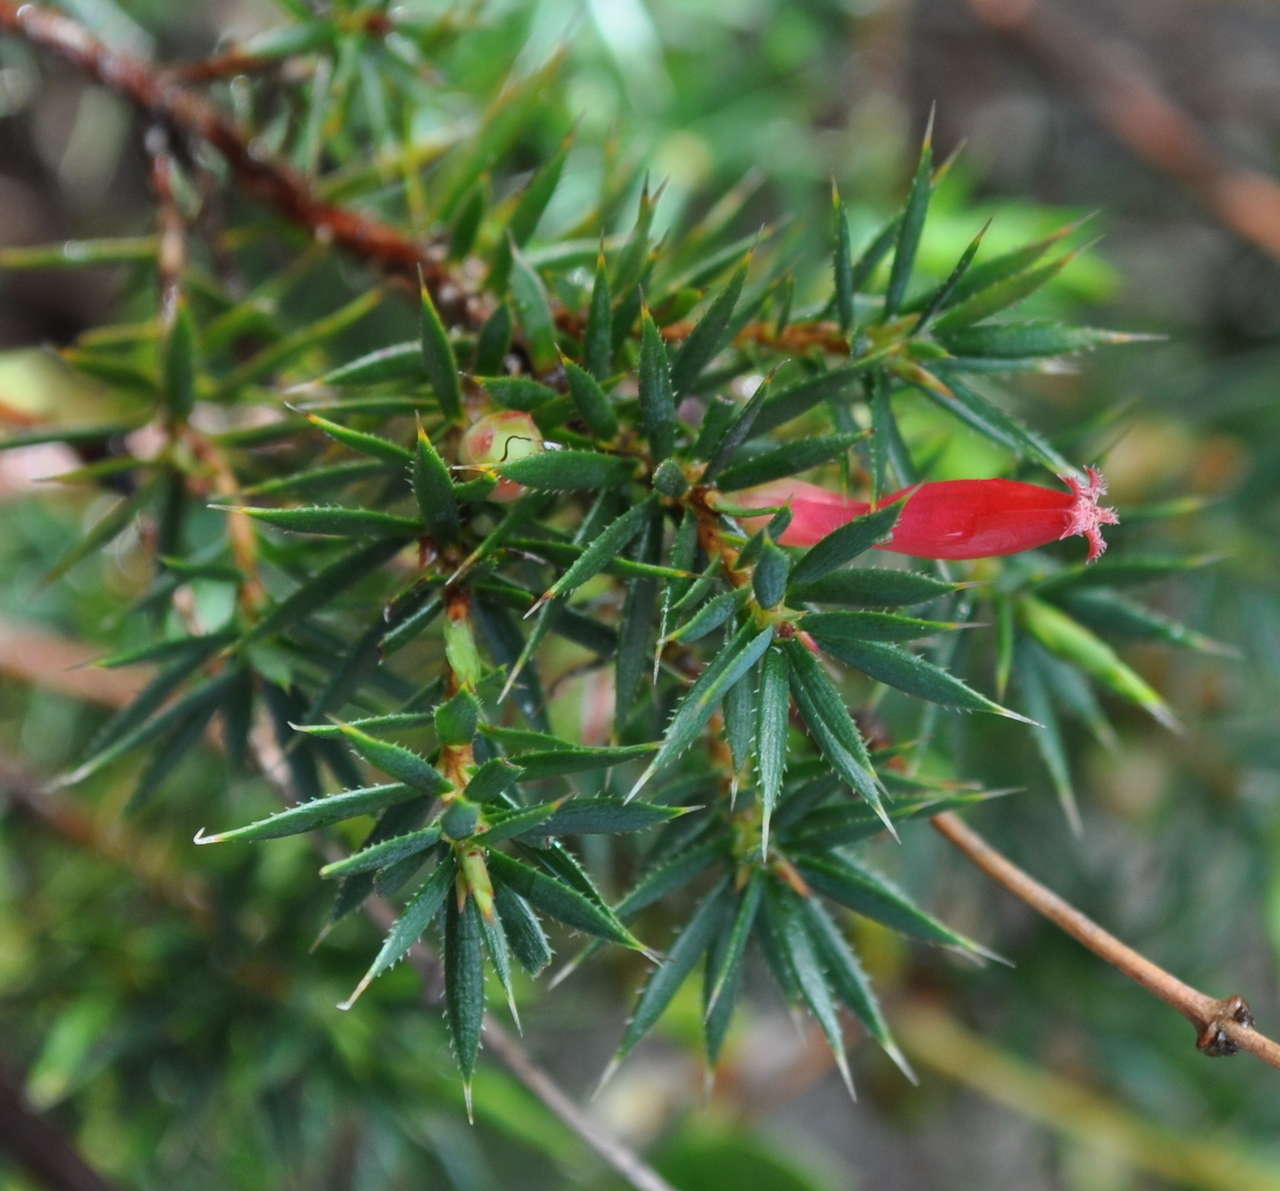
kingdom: Plantae
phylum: Tracheophyta
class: Magnoliopsida
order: Ericales
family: Ericaceae
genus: Styphelia
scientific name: Styphelia humifusa
